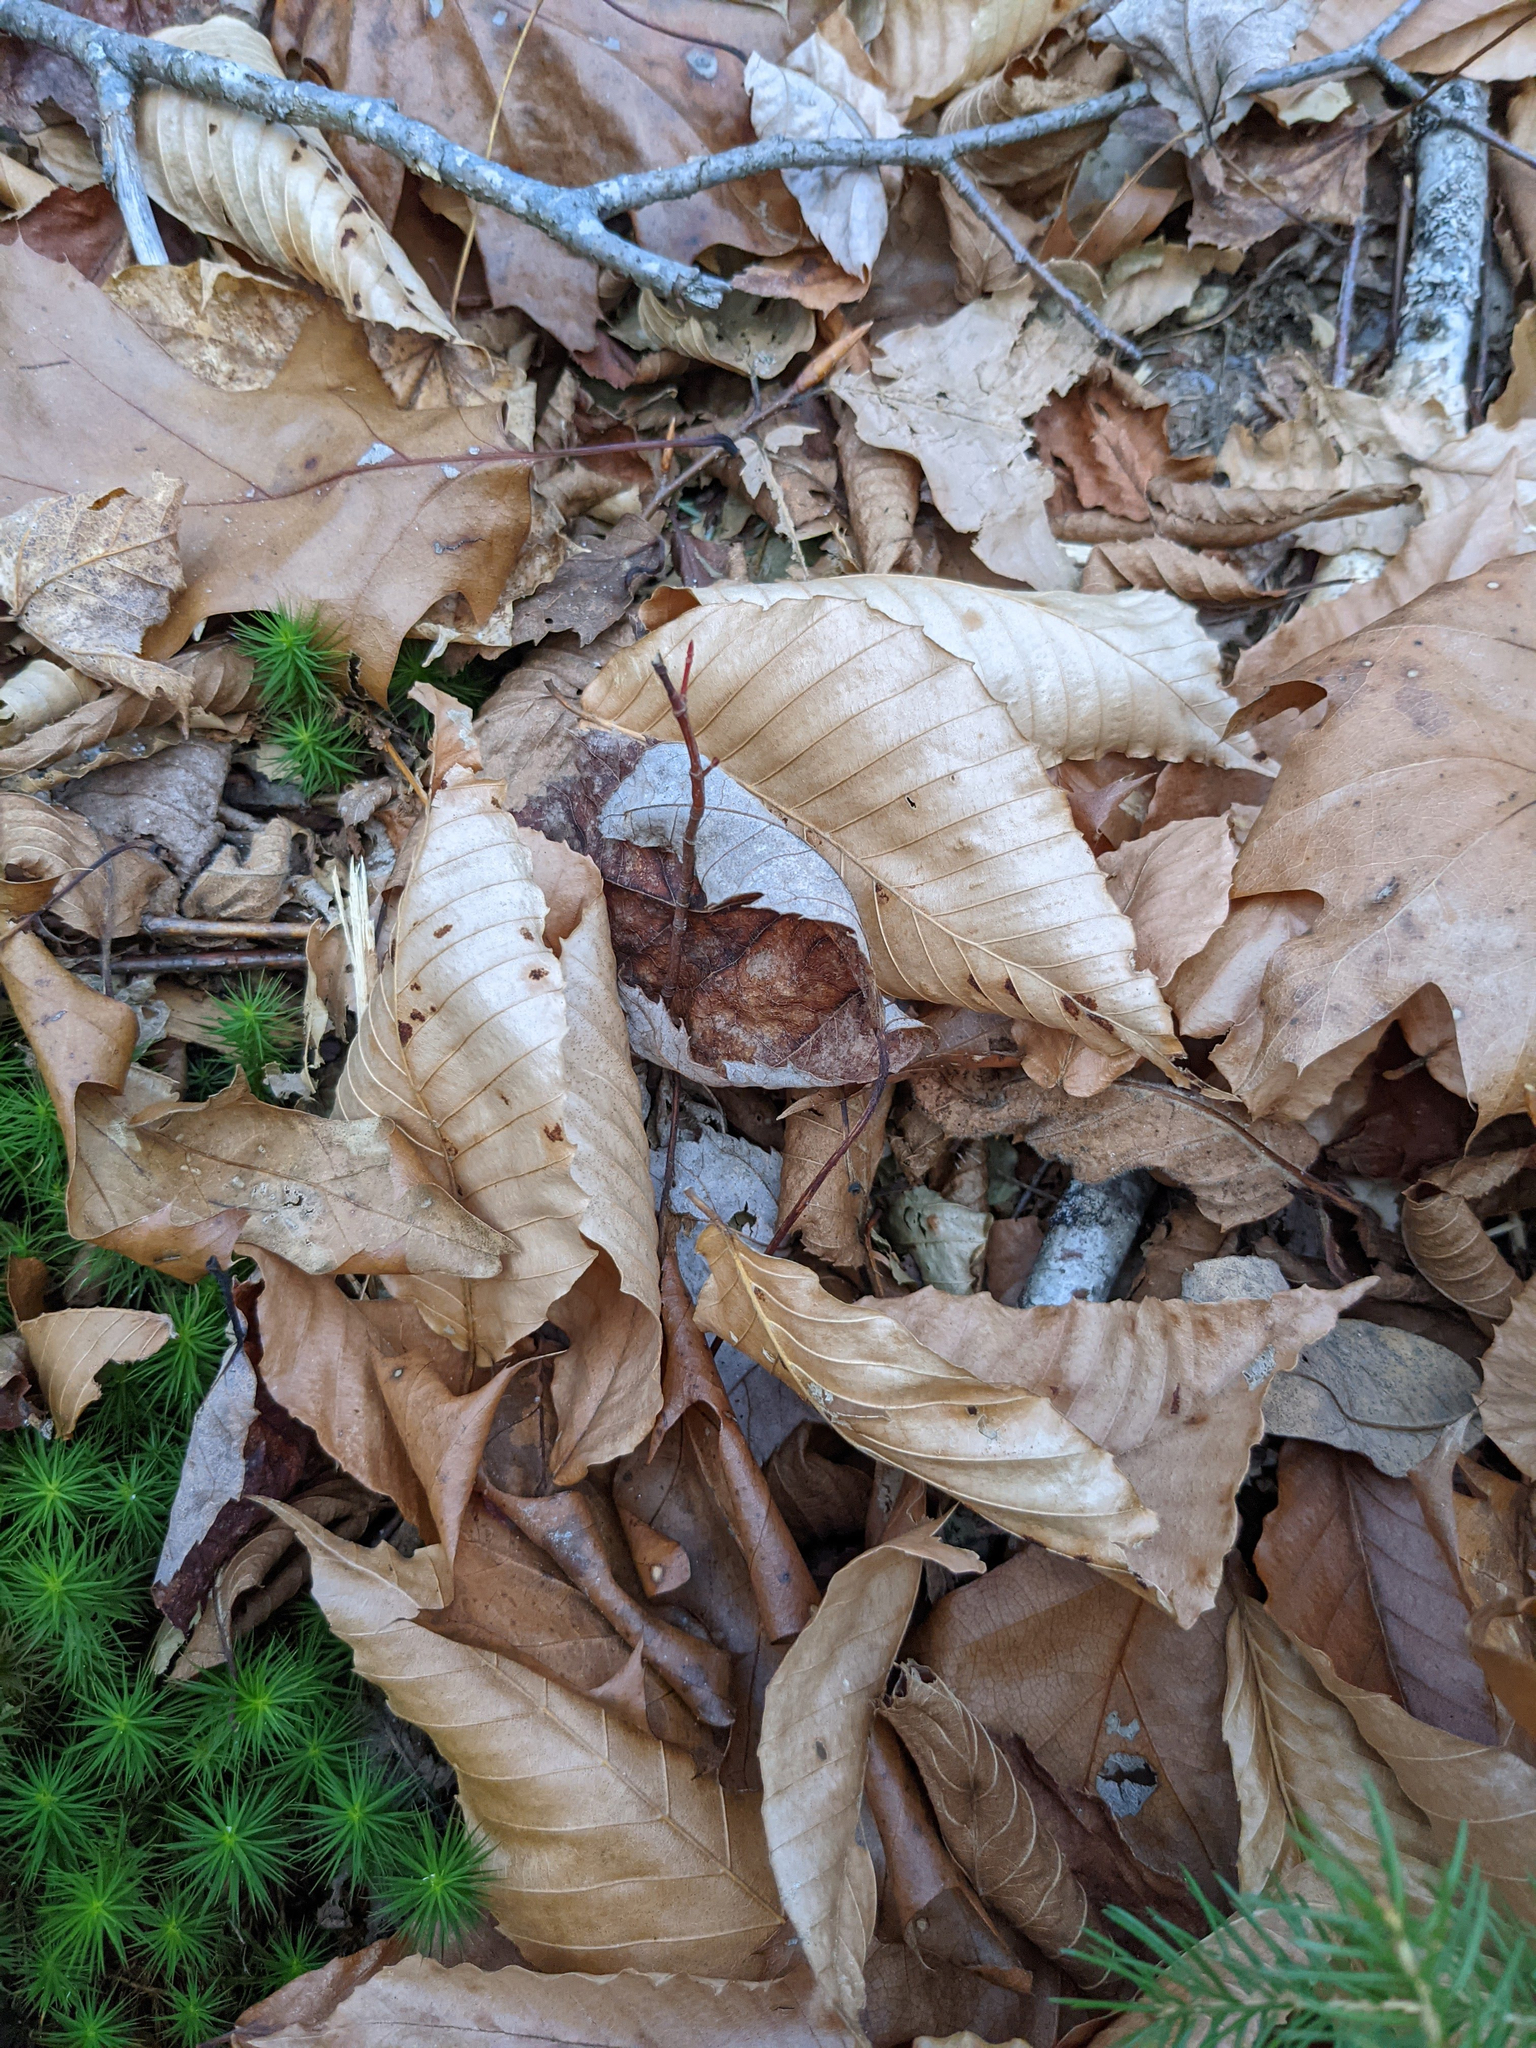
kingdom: Plantae
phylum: Tracheophyta
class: Magnoliopsida
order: Fagales
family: Fagaceae
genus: Fagus
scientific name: Fagus grandifolia
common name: American beech
